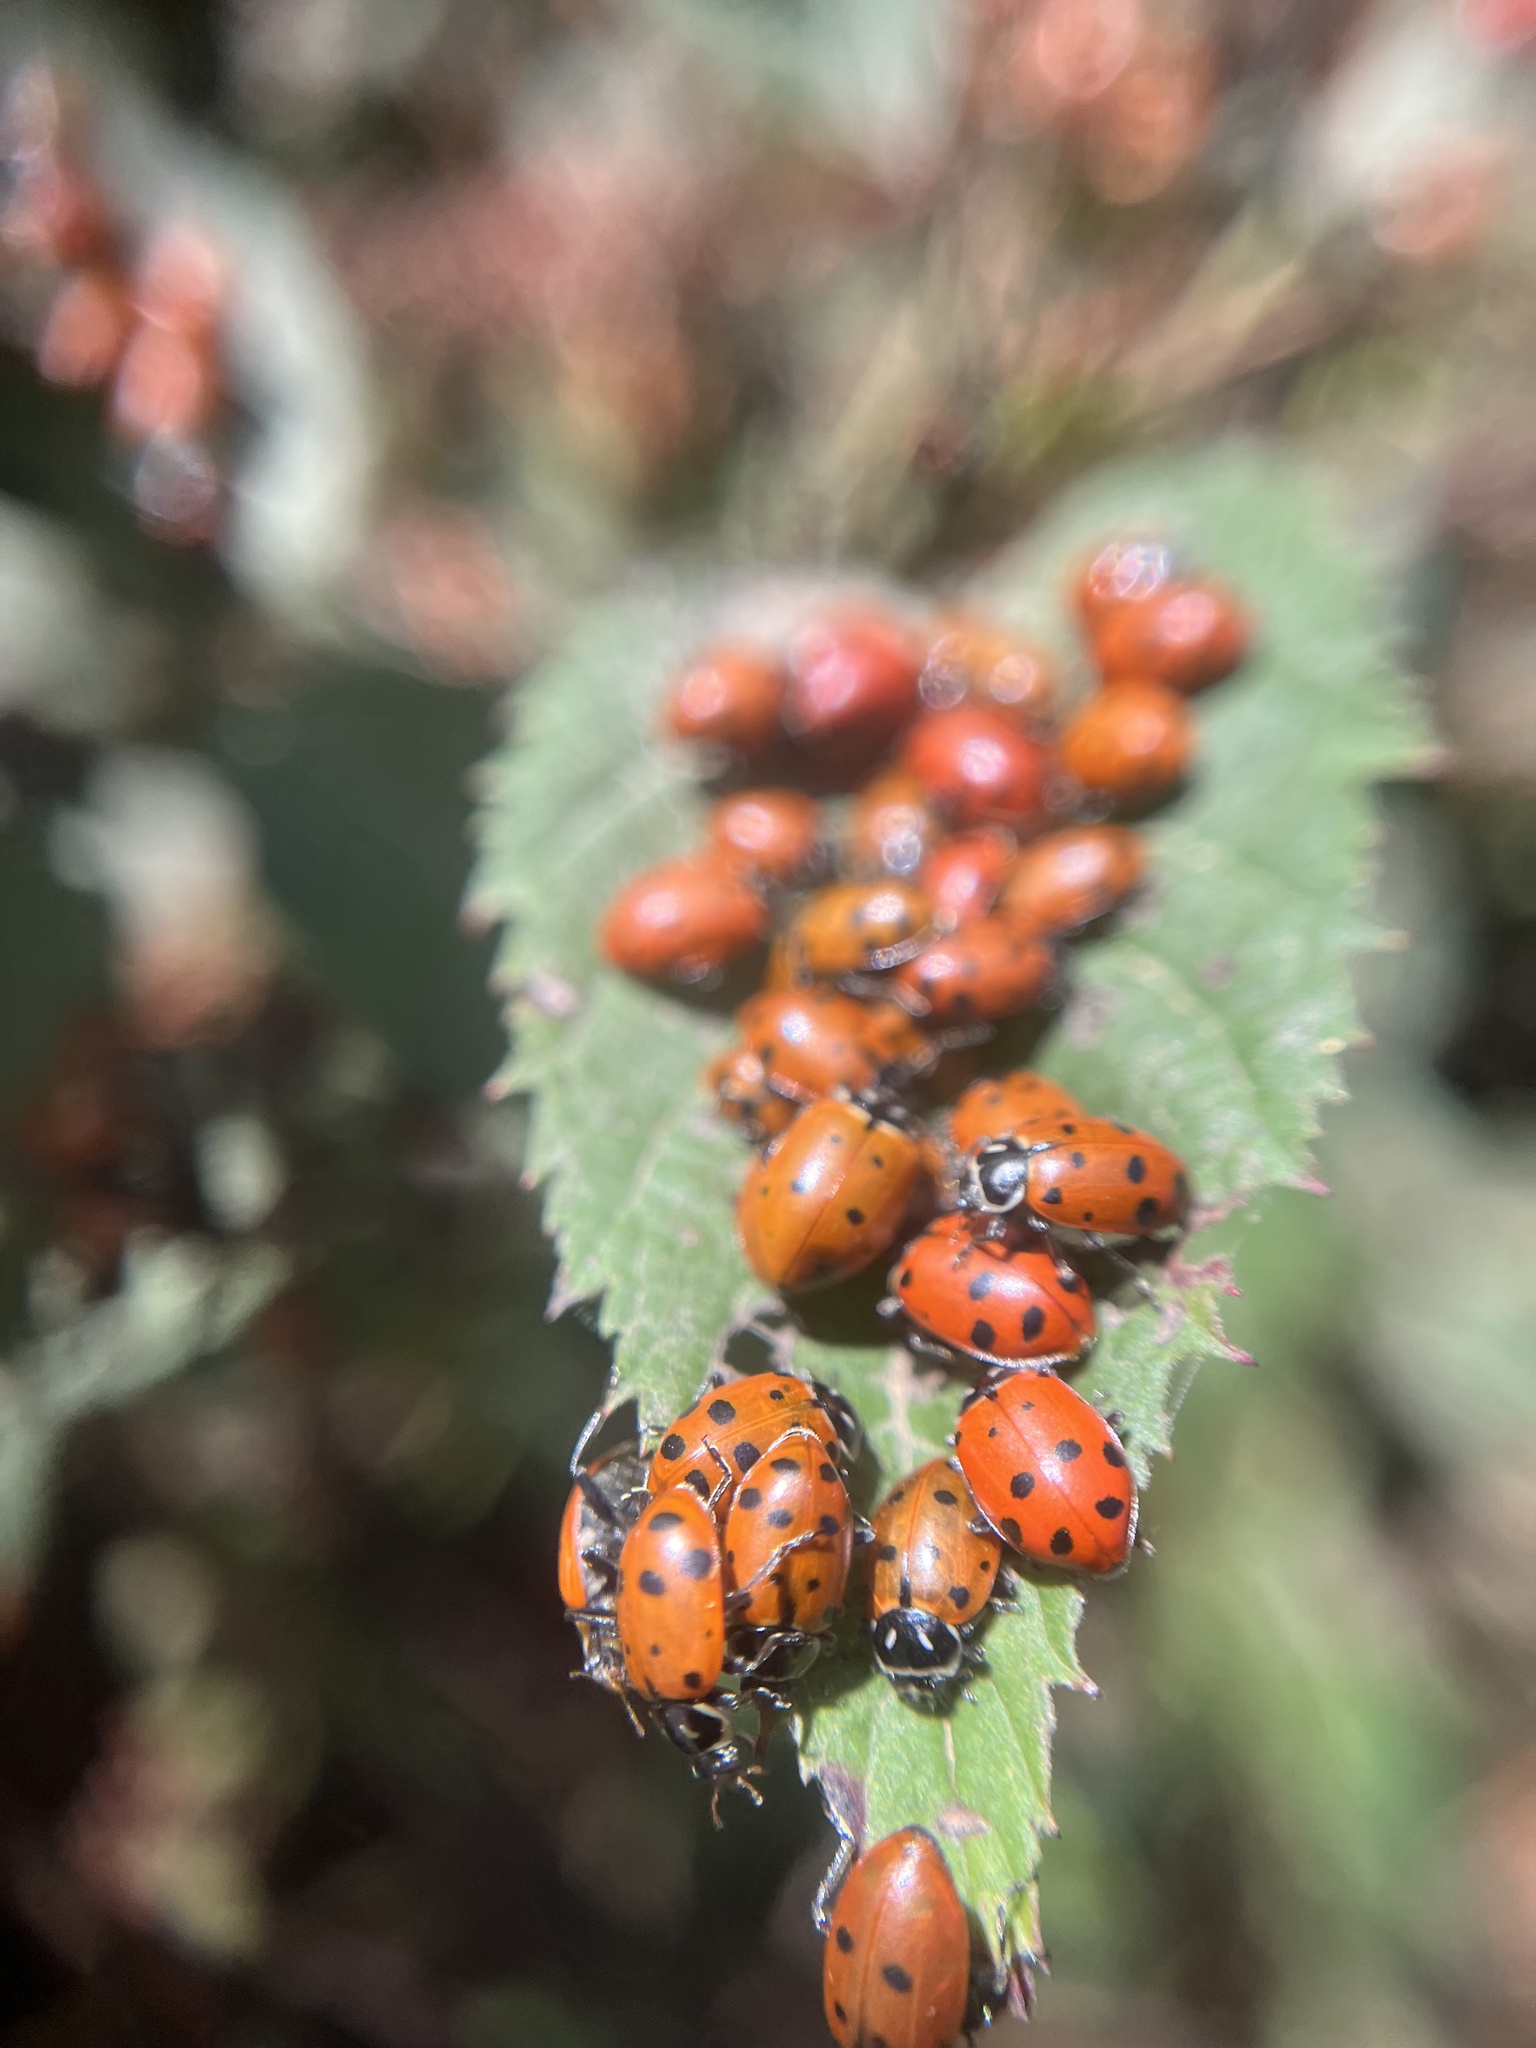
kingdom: Animalia
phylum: Arthropoda
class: Insecta
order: Coleoptera
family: Coccinellidae
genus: Hippodamia
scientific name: Hippodamia convergens
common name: Convergent lady beetle
